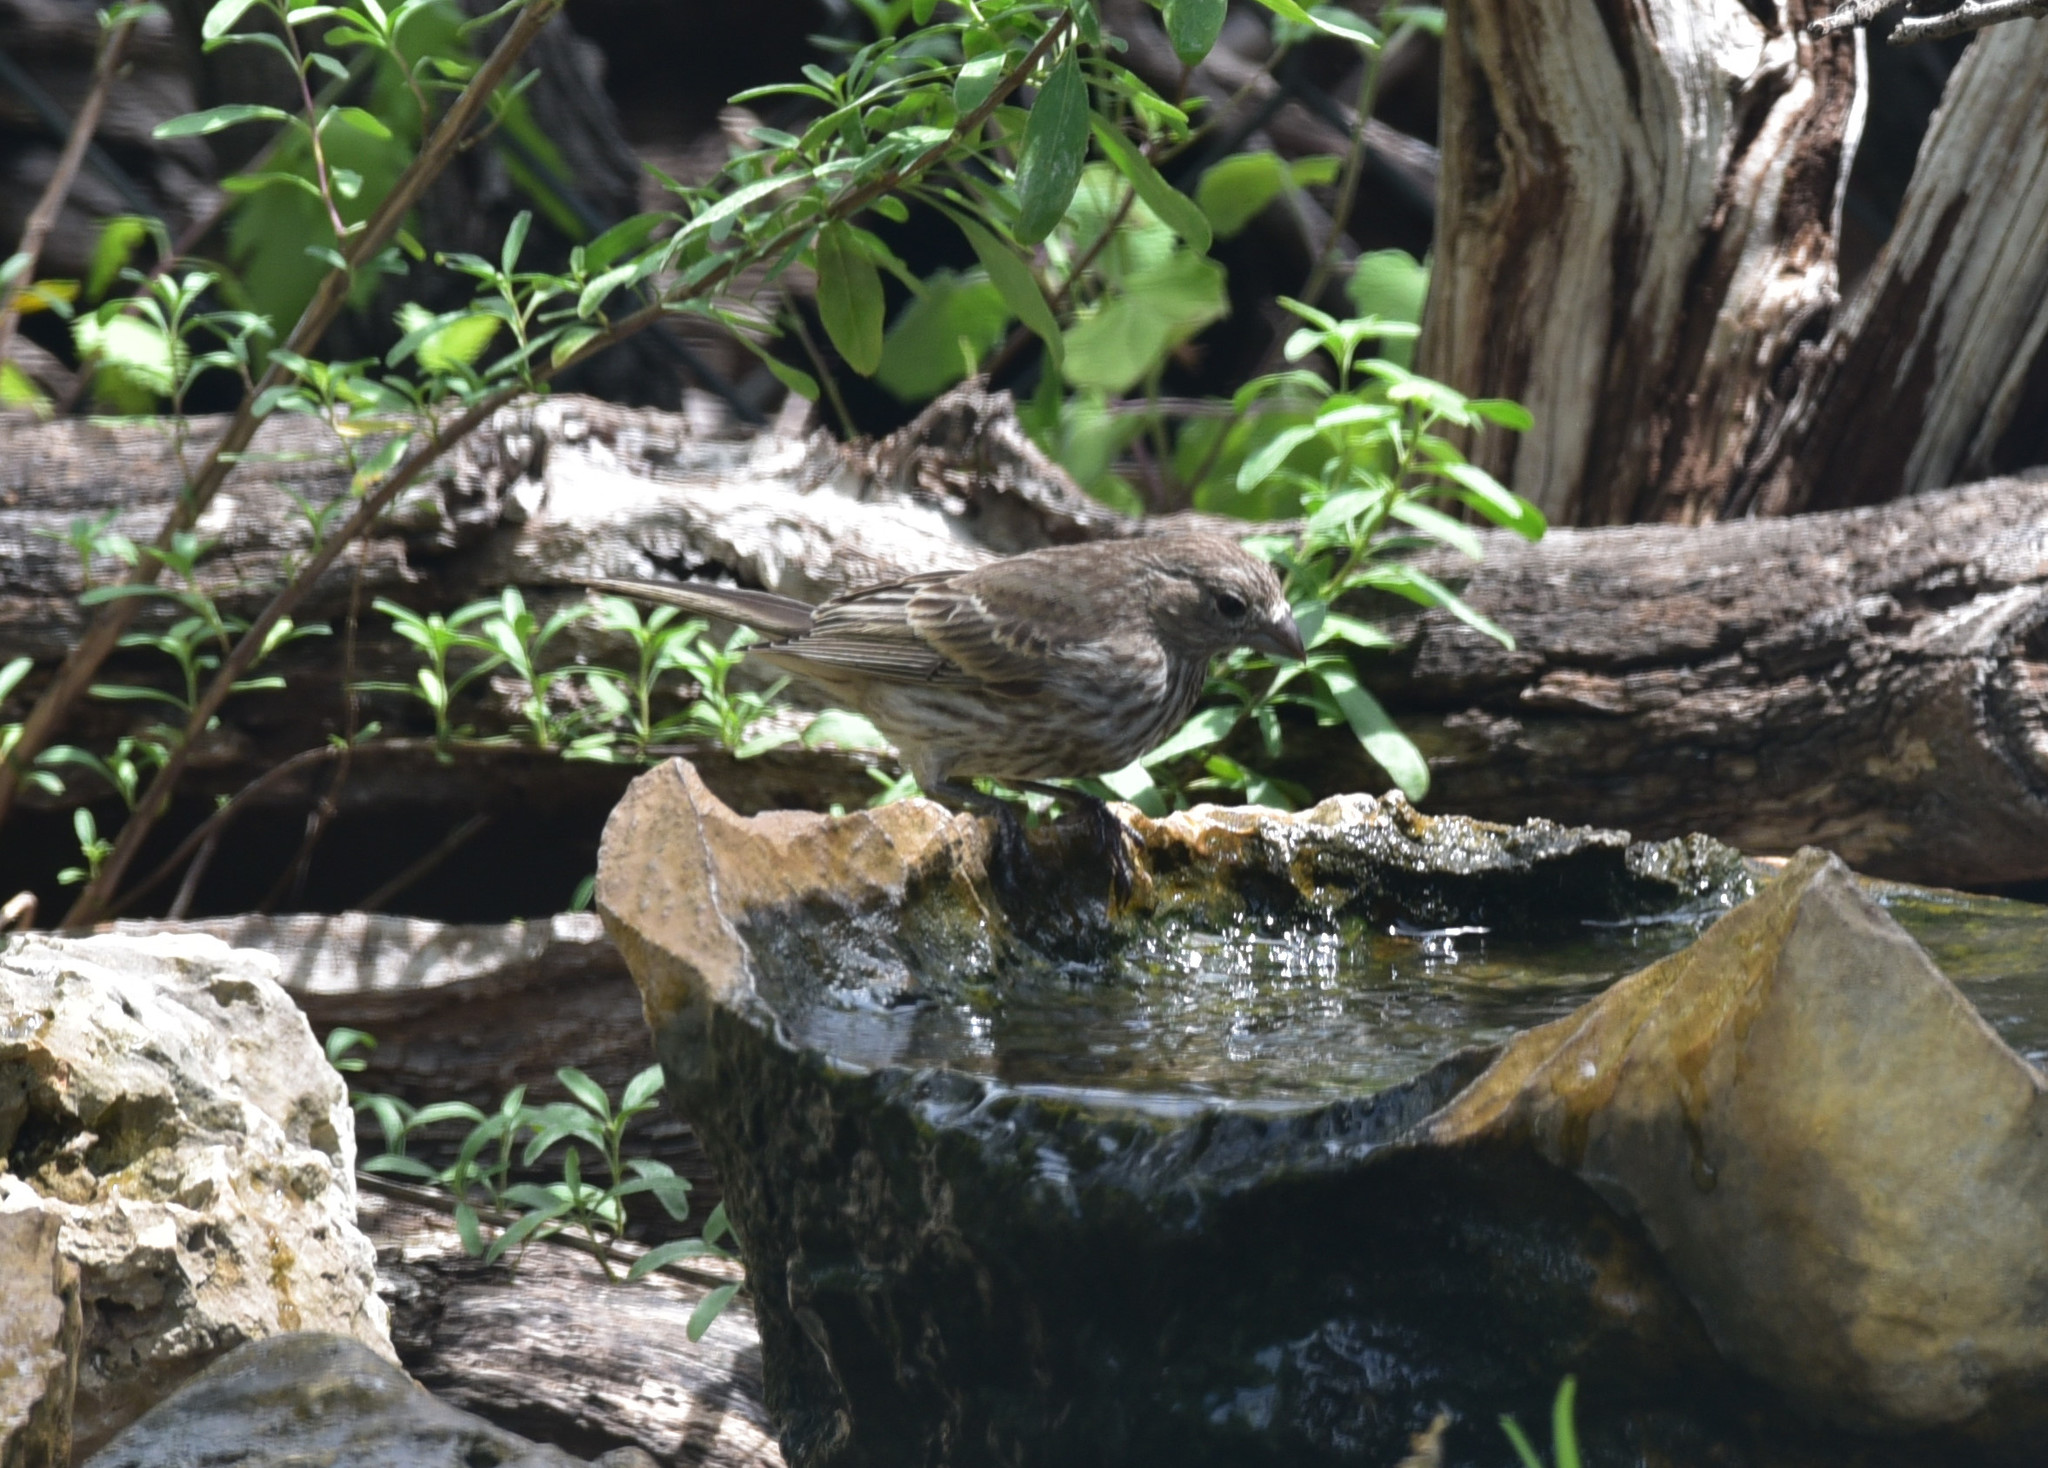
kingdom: Animalia
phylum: Chordata
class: Aves
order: Passeriformes
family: Fringillidae
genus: Haemorhous
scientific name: Haemorhous mexicanus
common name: House finch
